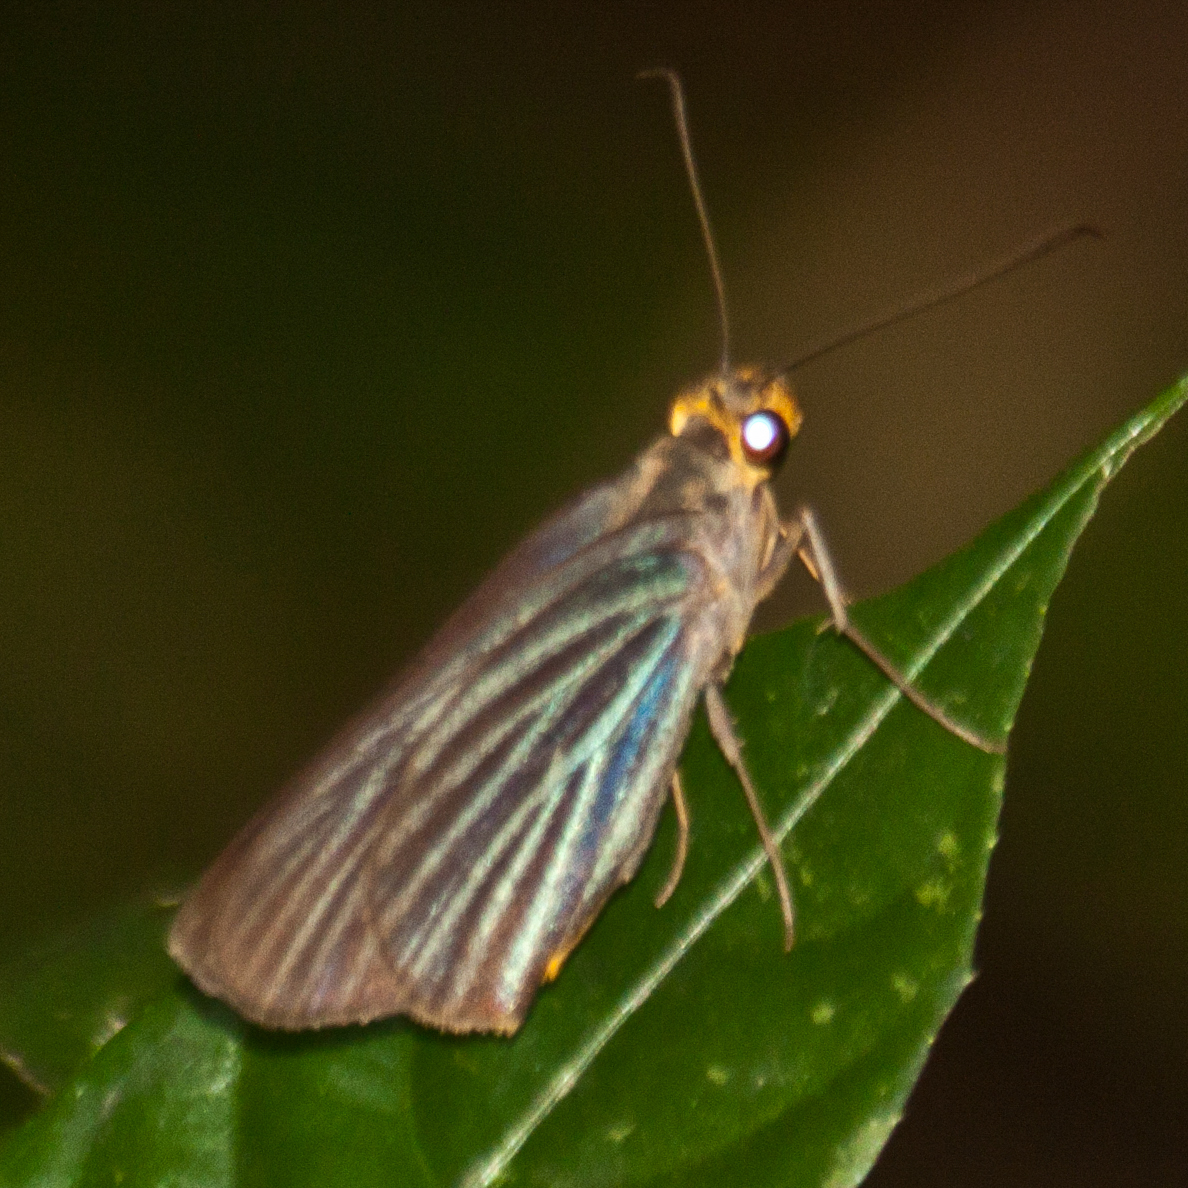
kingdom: Animalia
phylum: Arthropoda
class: Insecta
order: Lepidoptera
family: Hesperiidae
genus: Pirdana
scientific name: Pirdana hyela
